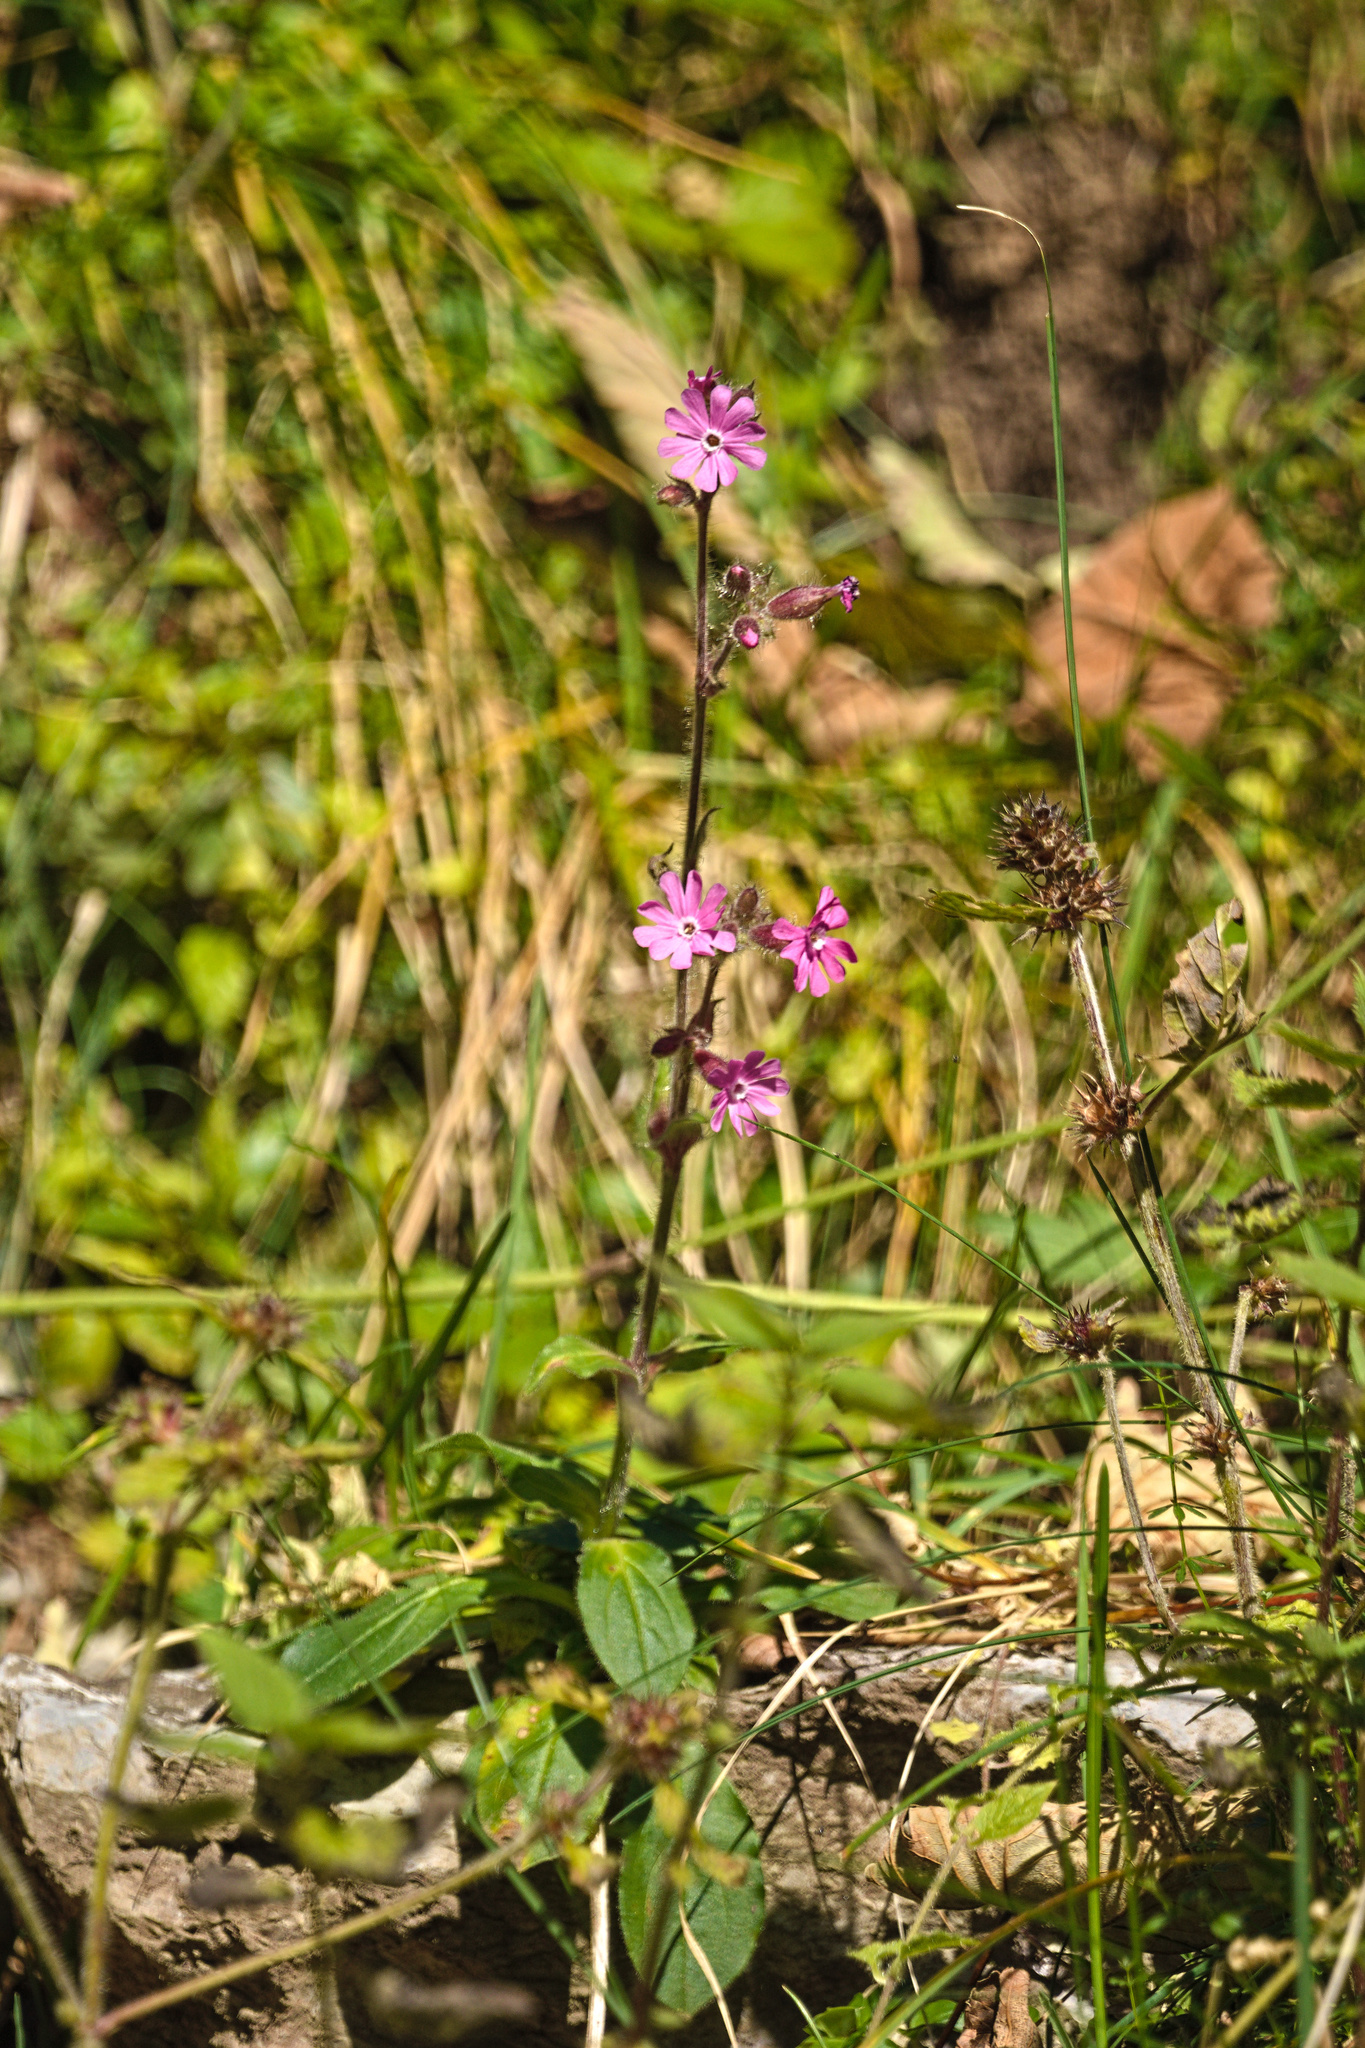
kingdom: Plantae
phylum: Tracheophyta
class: Magnoliopsida
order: Caryophyllales
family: Caryophyllaceae
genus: Silene
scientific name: Silene dioica
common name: Red campion
